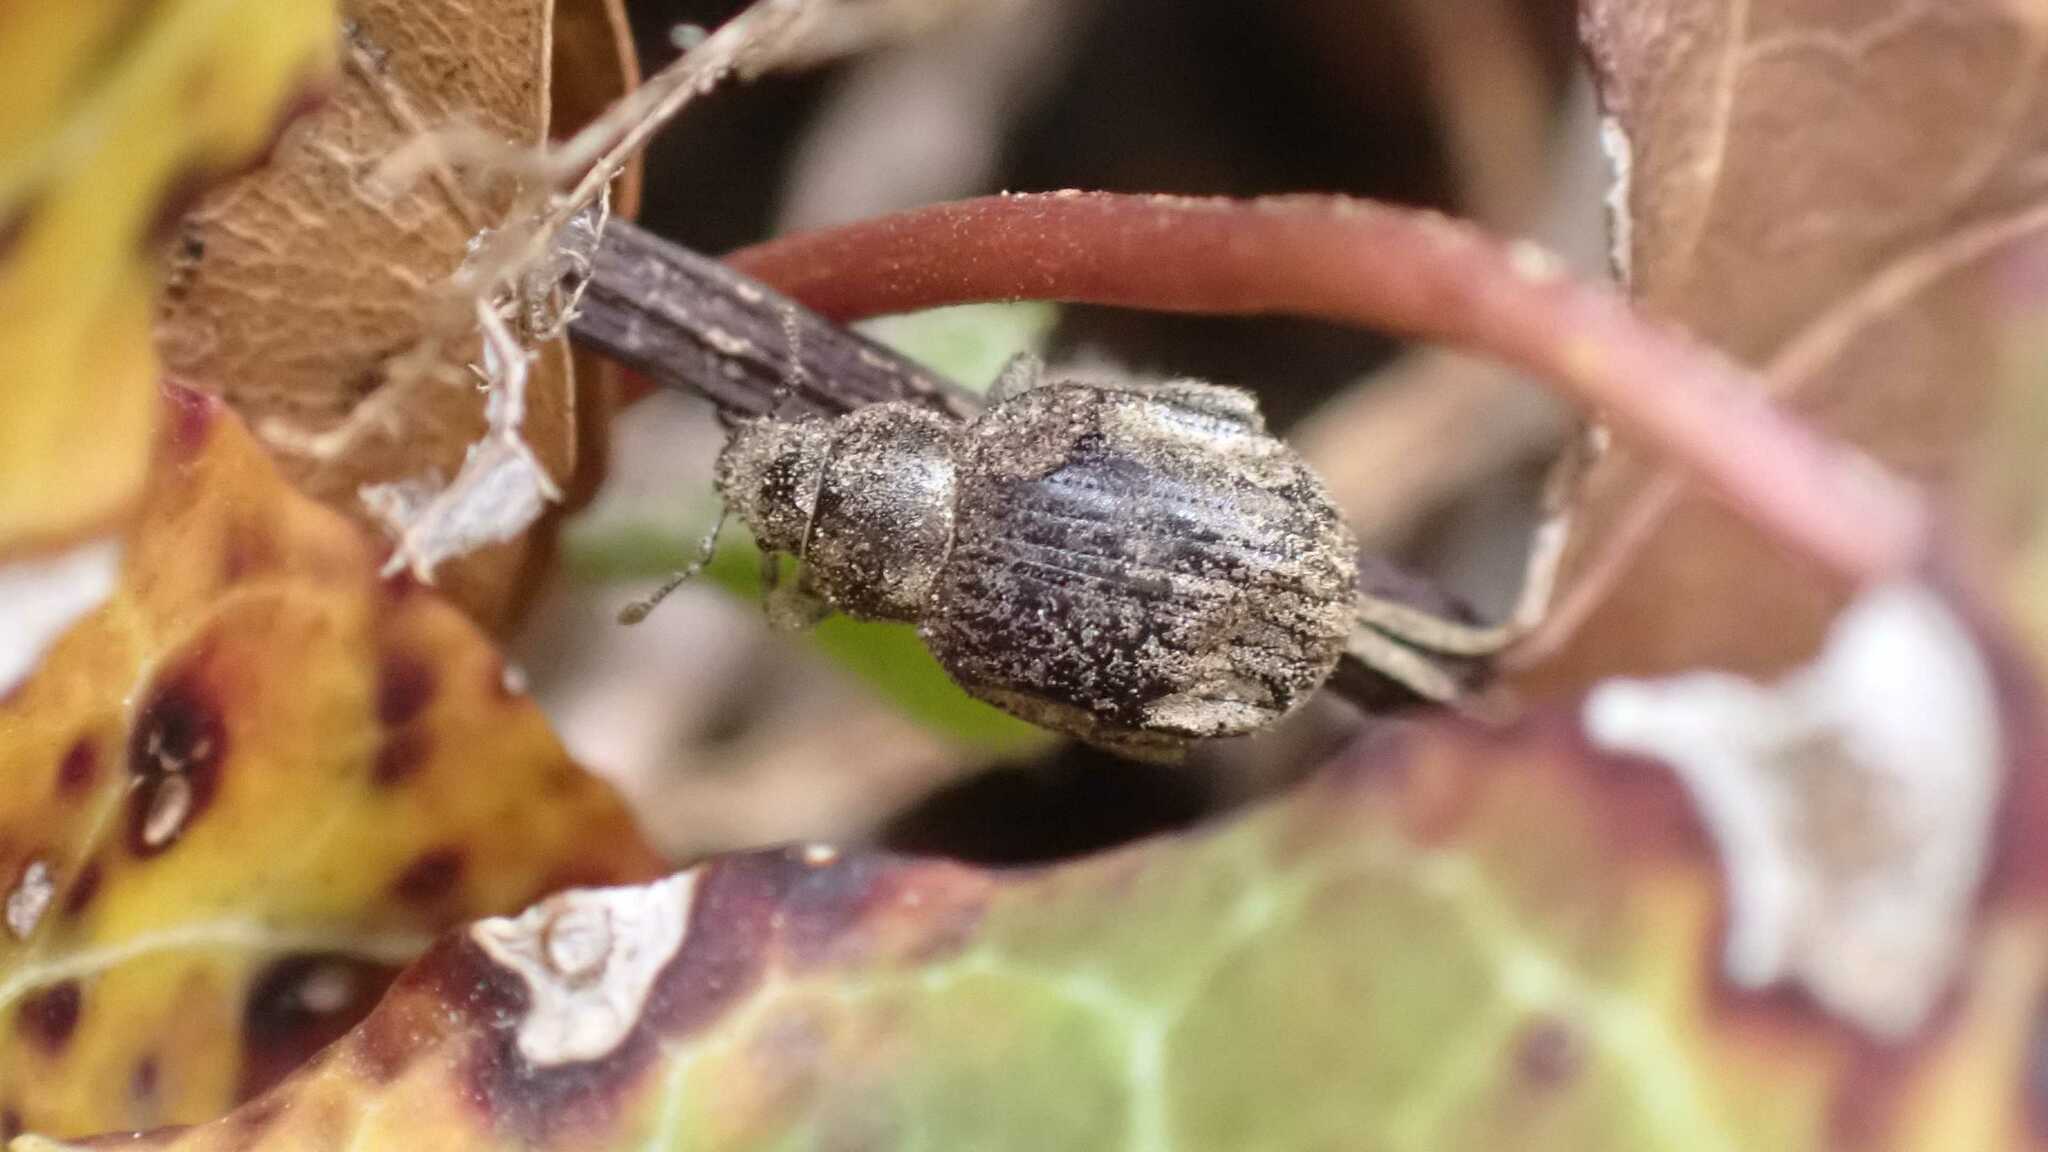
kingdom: Animalia
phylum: Arthropoda
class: Insecta
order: Coleoptera
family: Curculionidae
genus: Philopedon
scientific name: Philopedon plagiatum
